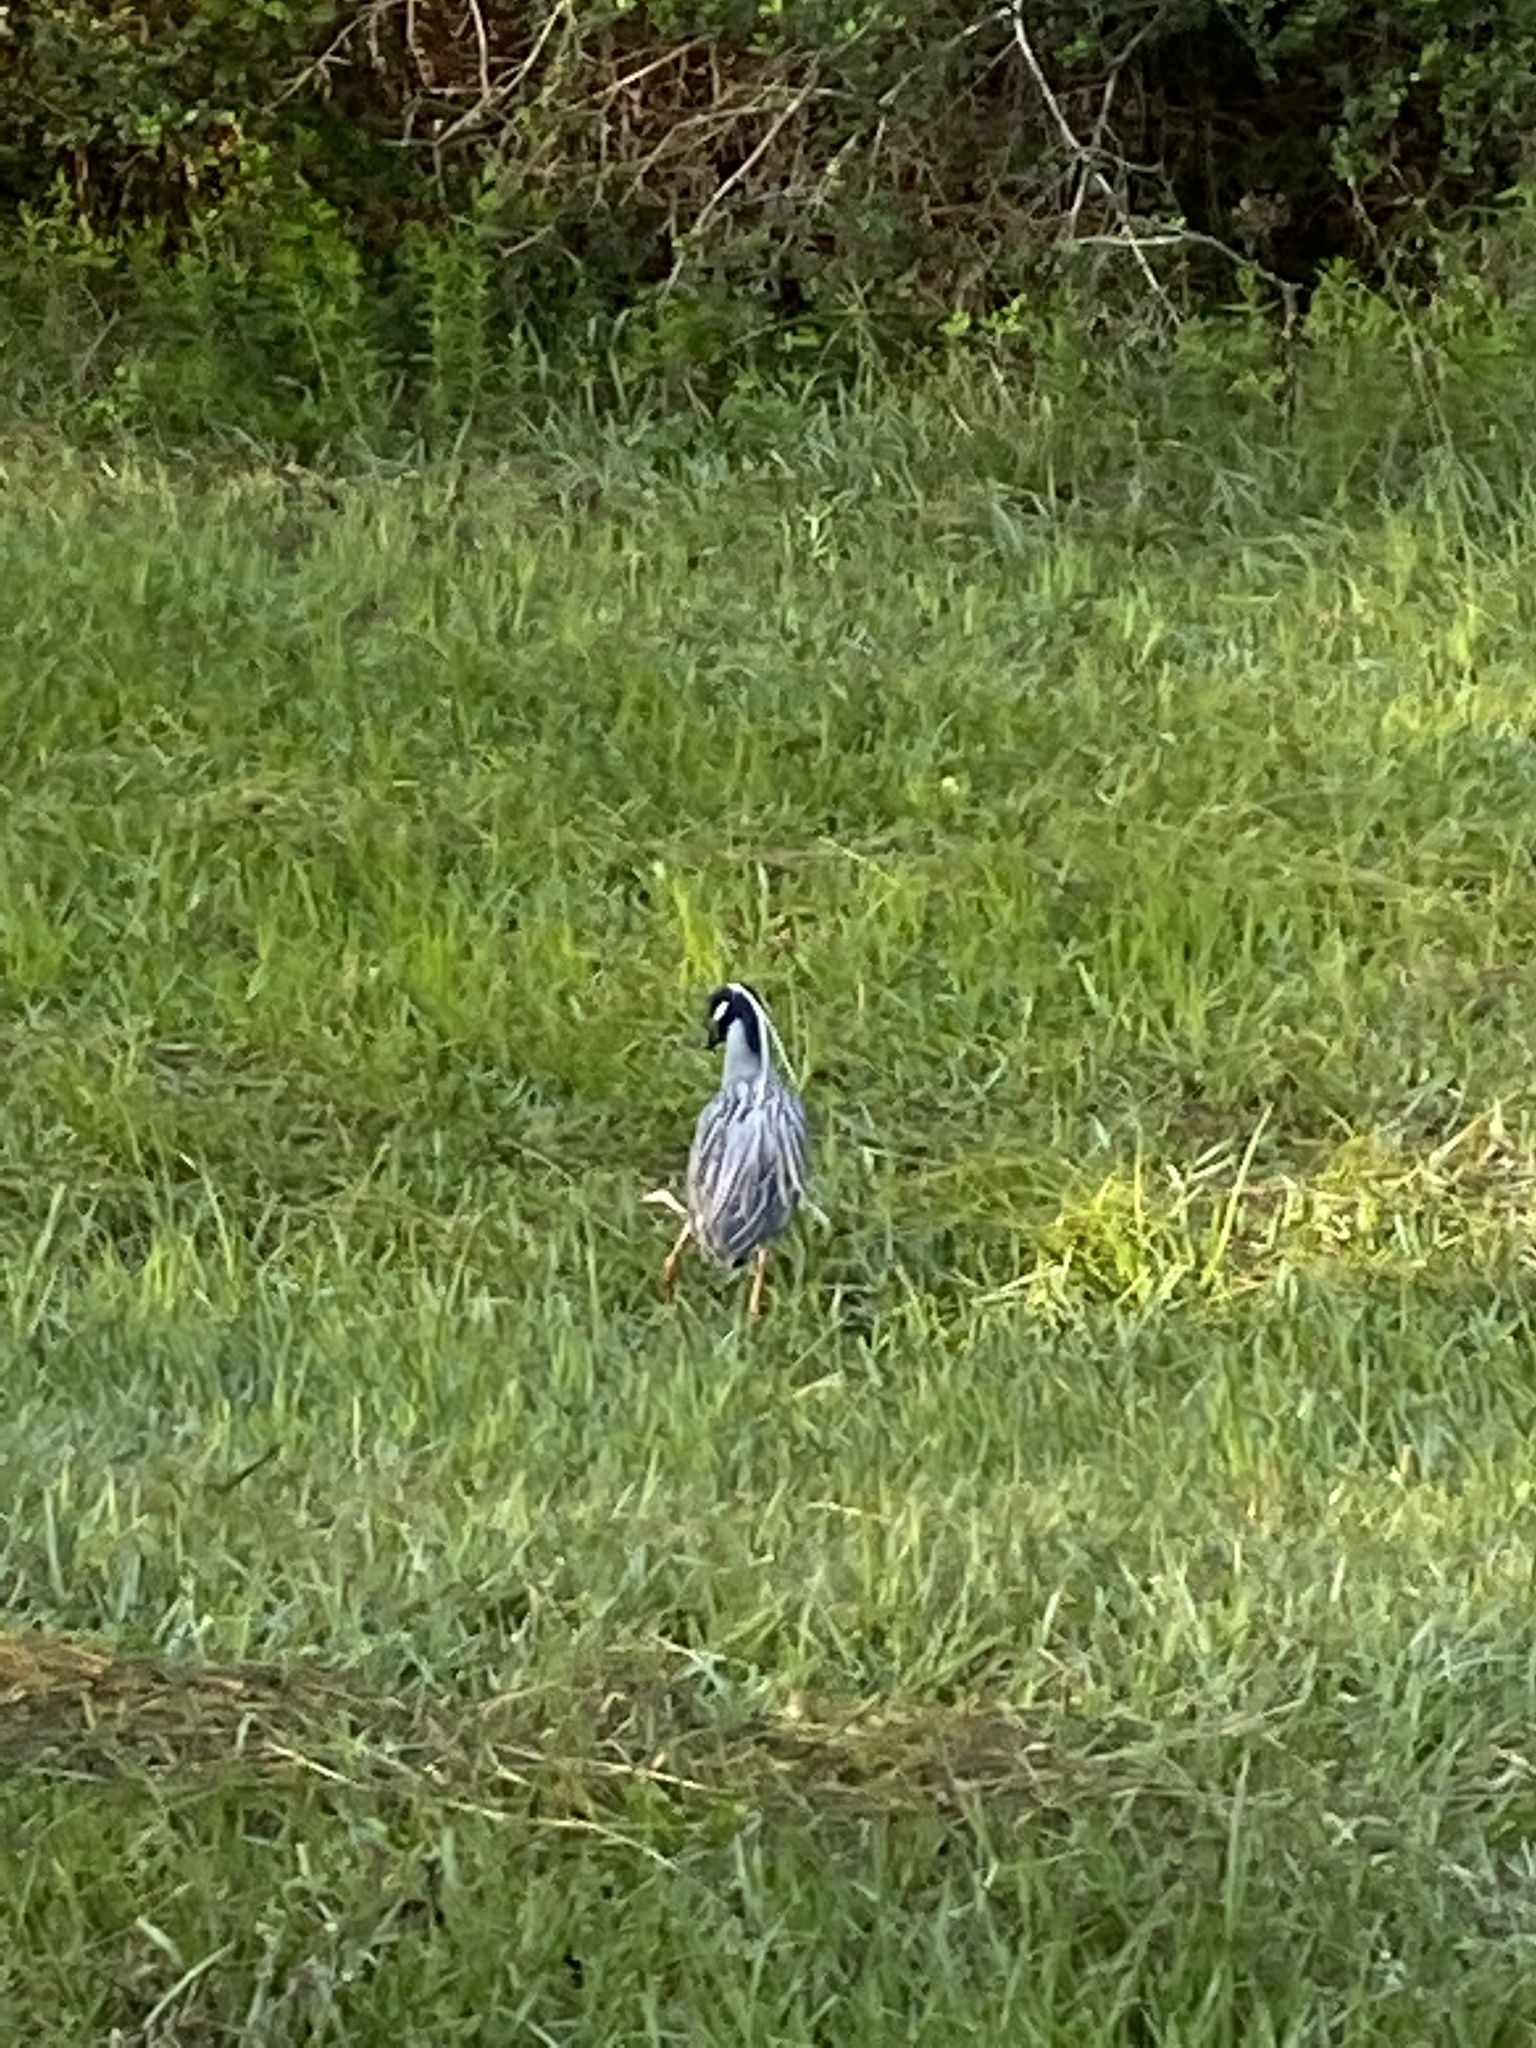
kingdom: Animalia
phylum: Chordata
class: Aves
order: Pelecaniformes
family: Ardeidae
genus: Nyctanassa
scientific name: Nyctanassa violacea
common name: Yellow-crowned night heron
